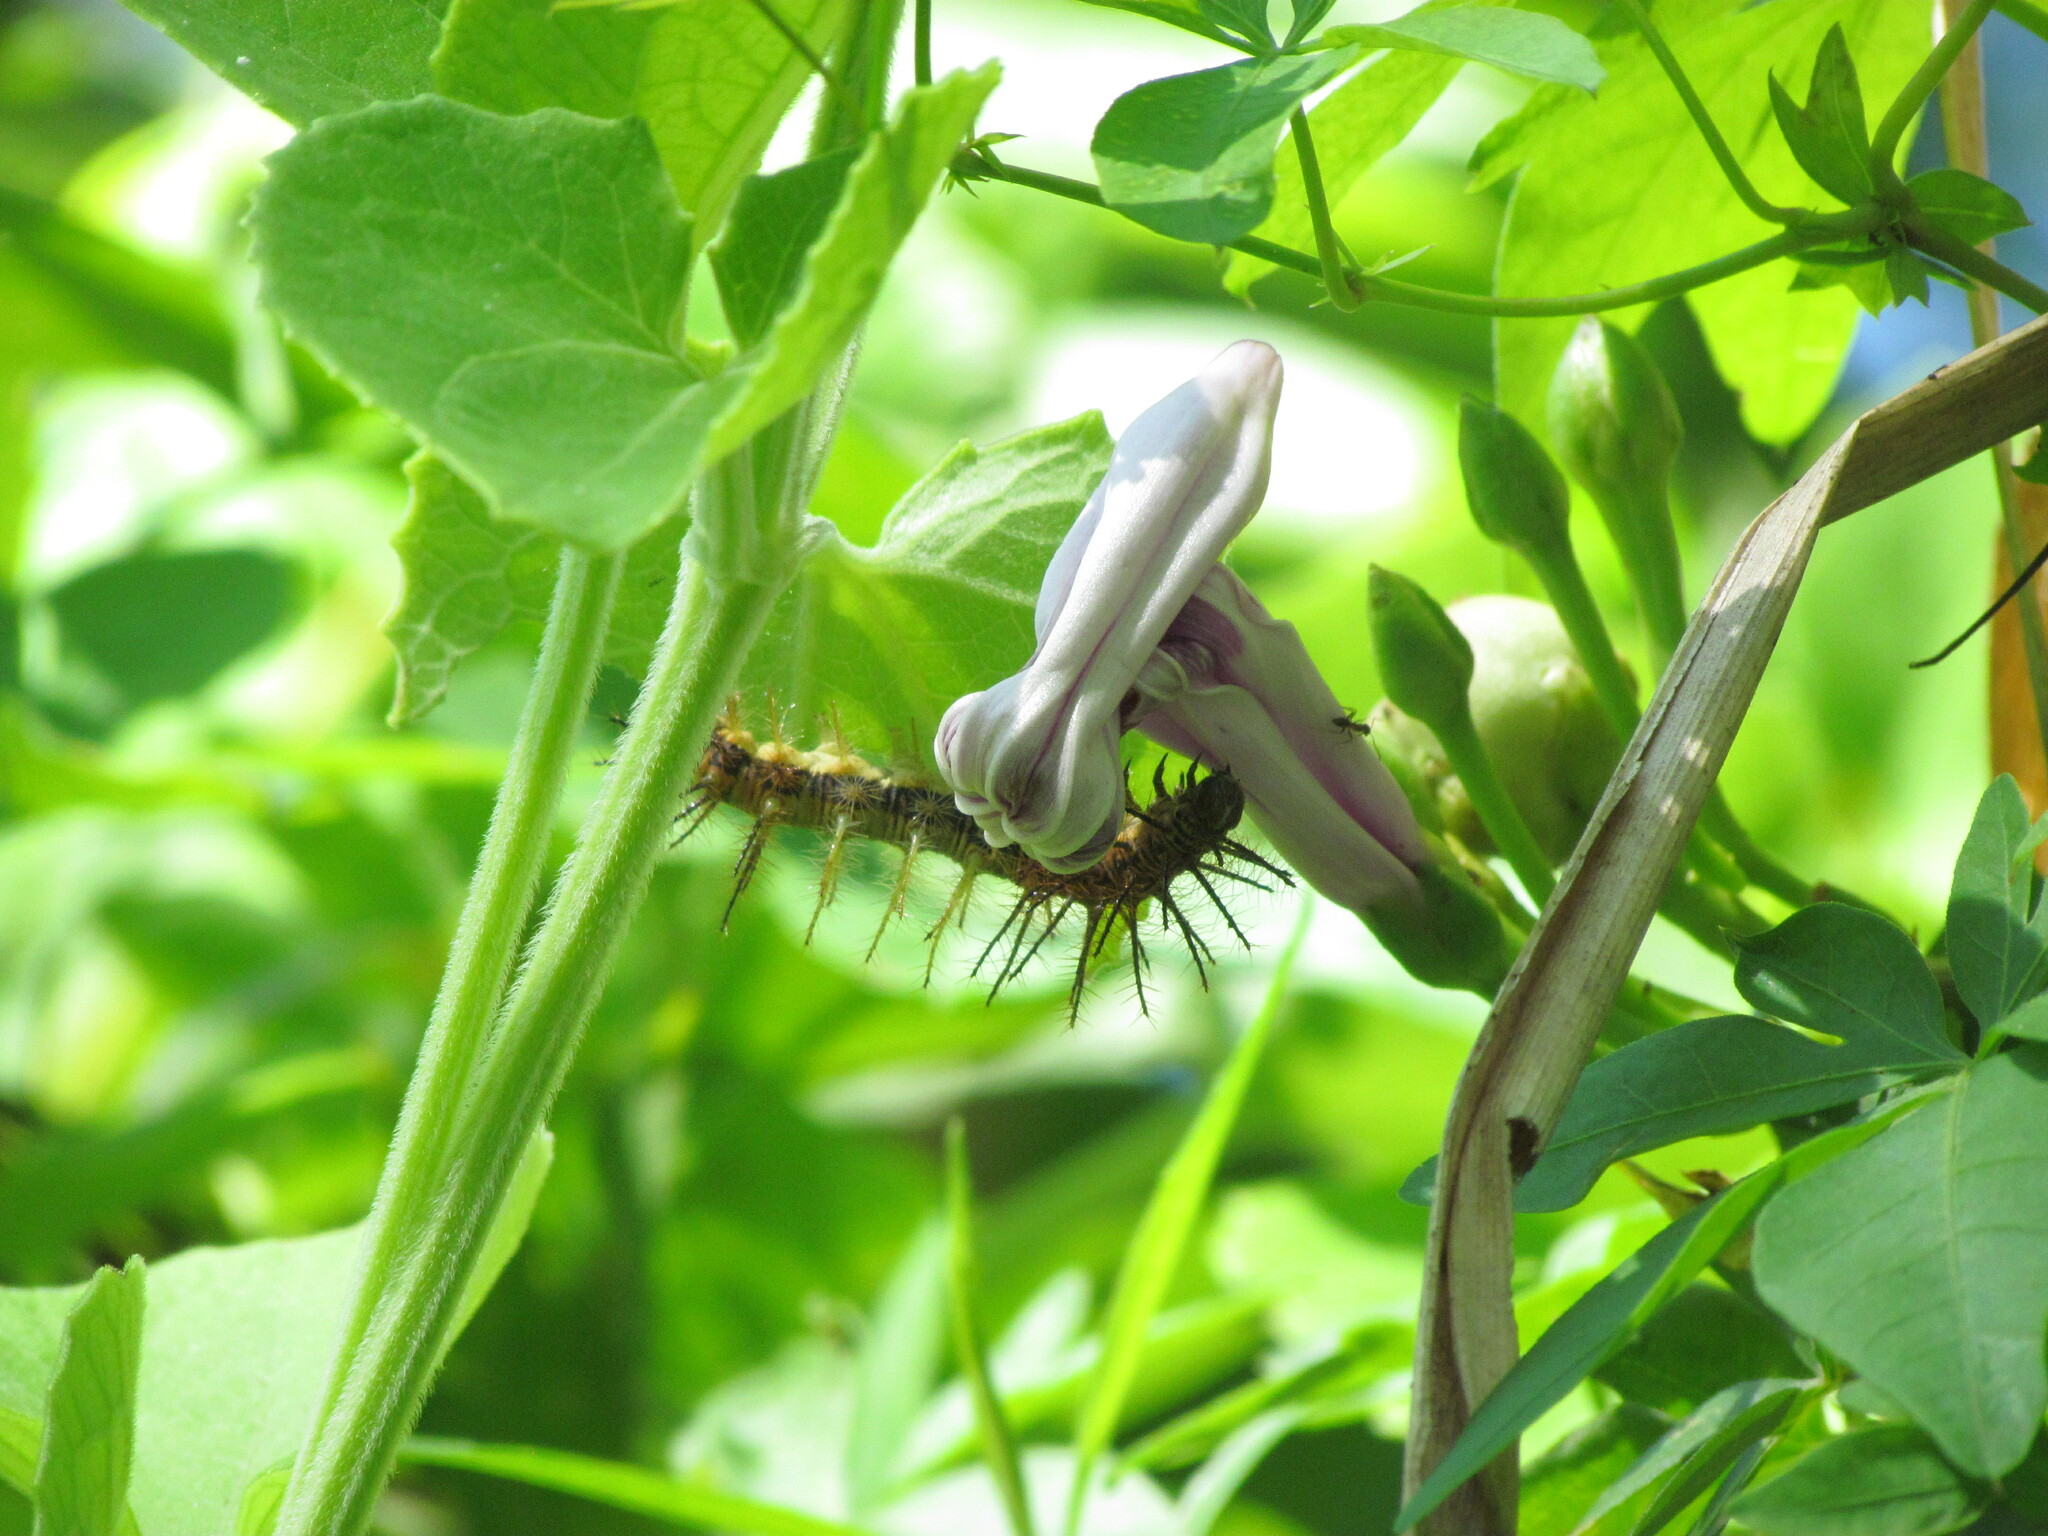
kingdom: Animalia
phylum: Arthropoda
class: Insecta
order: Lepidoptera
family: Nymphalidae
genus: Dione
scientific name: Dione vanillae
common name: Gulf fritillary
